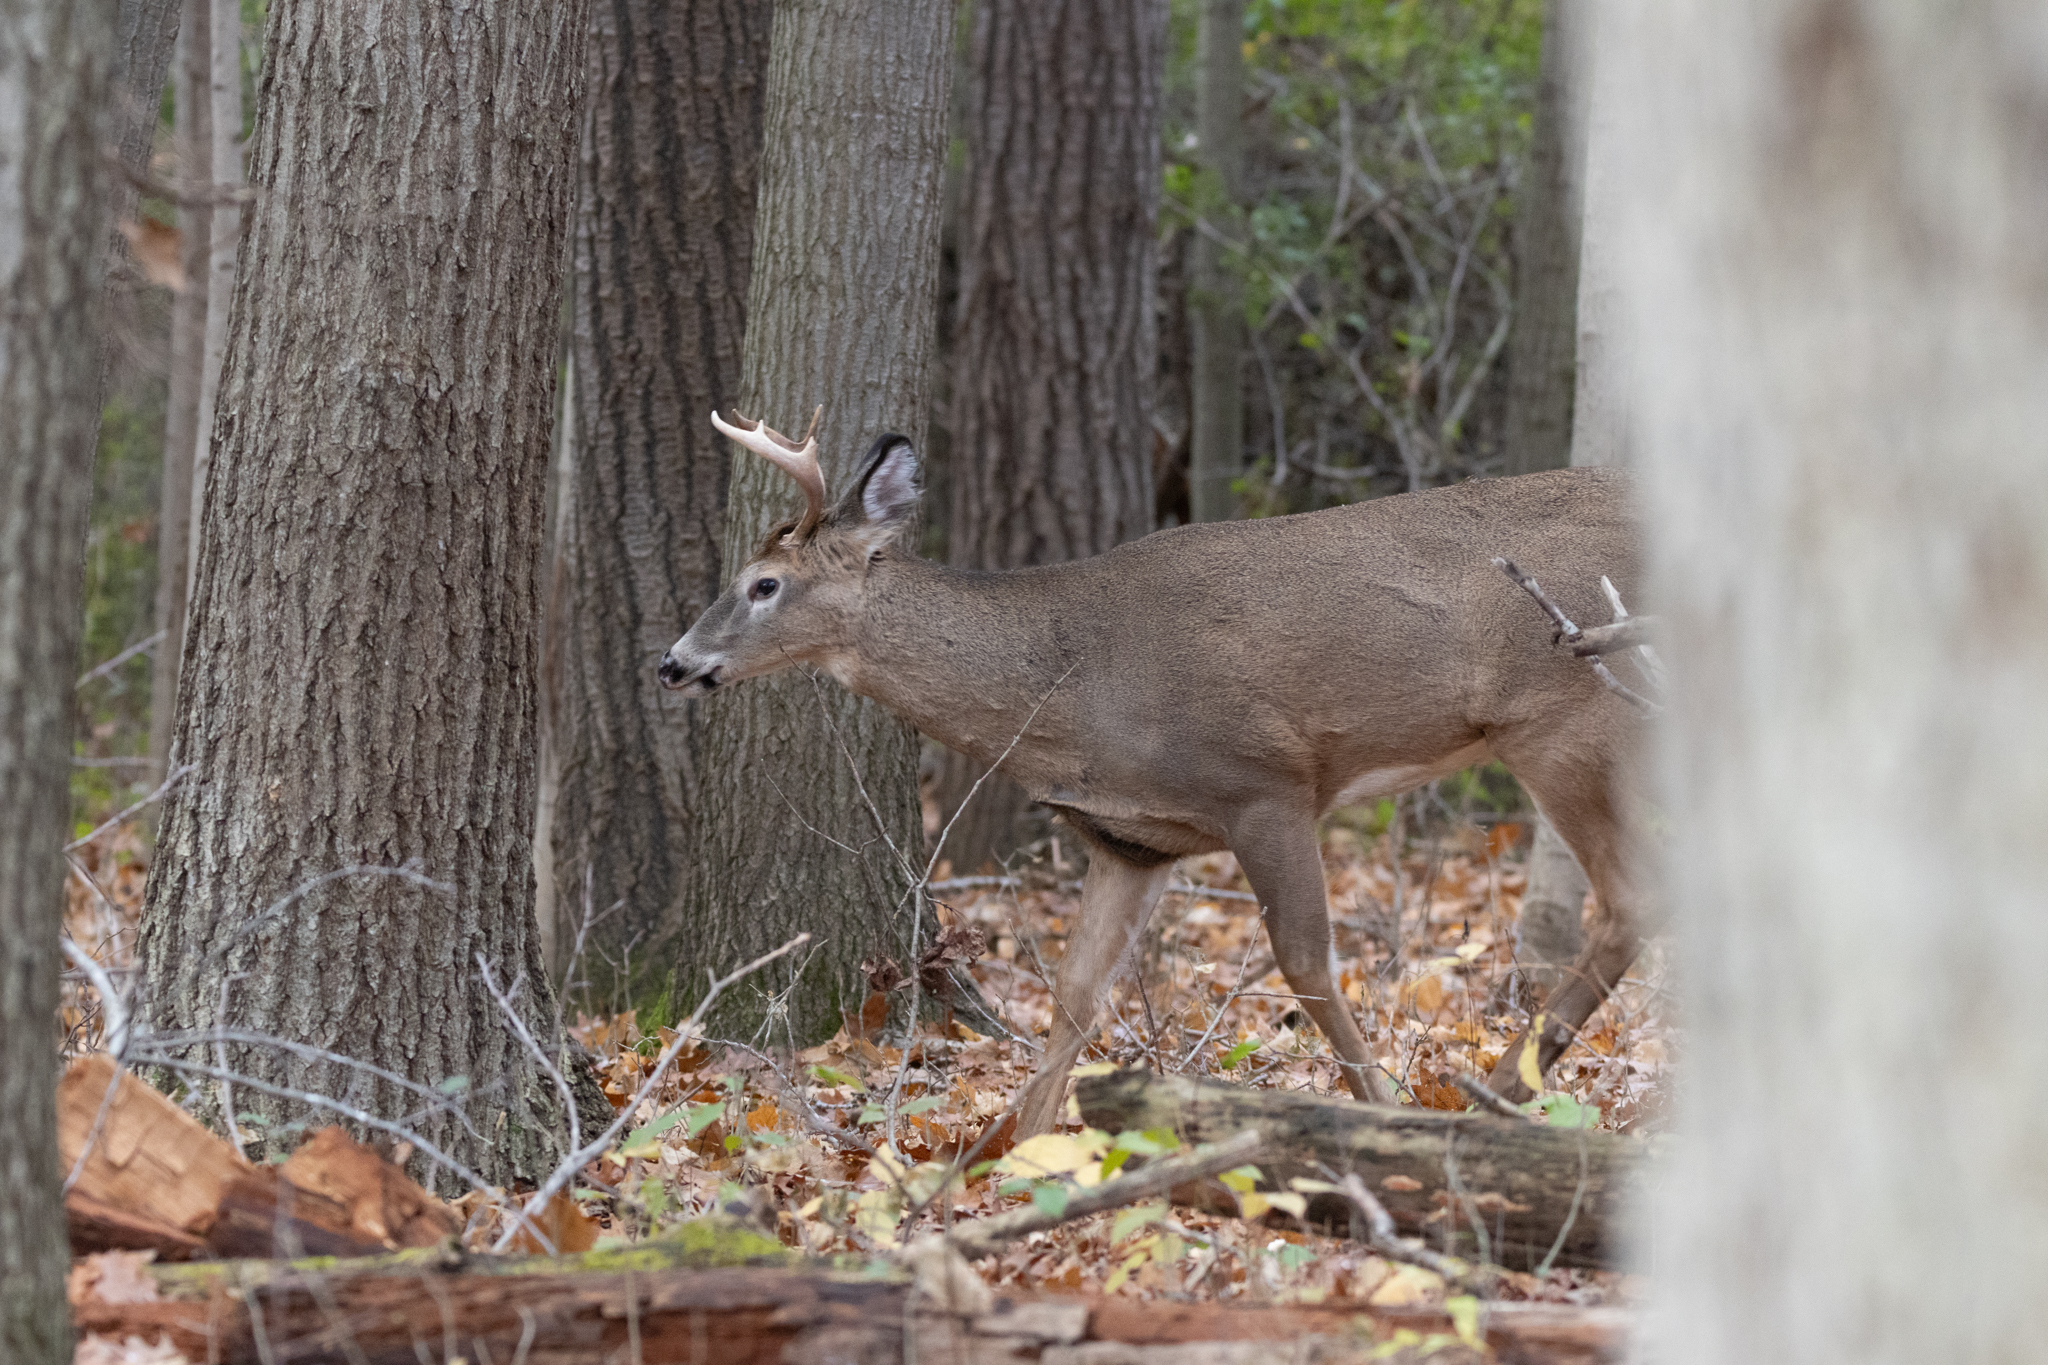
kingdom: Animalia
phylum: Chordata
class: Mammalia
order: Artiodactyla
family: Cervidae
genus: Odocoileus
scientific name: Odocoileus virginianus
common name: White-tailed deer
